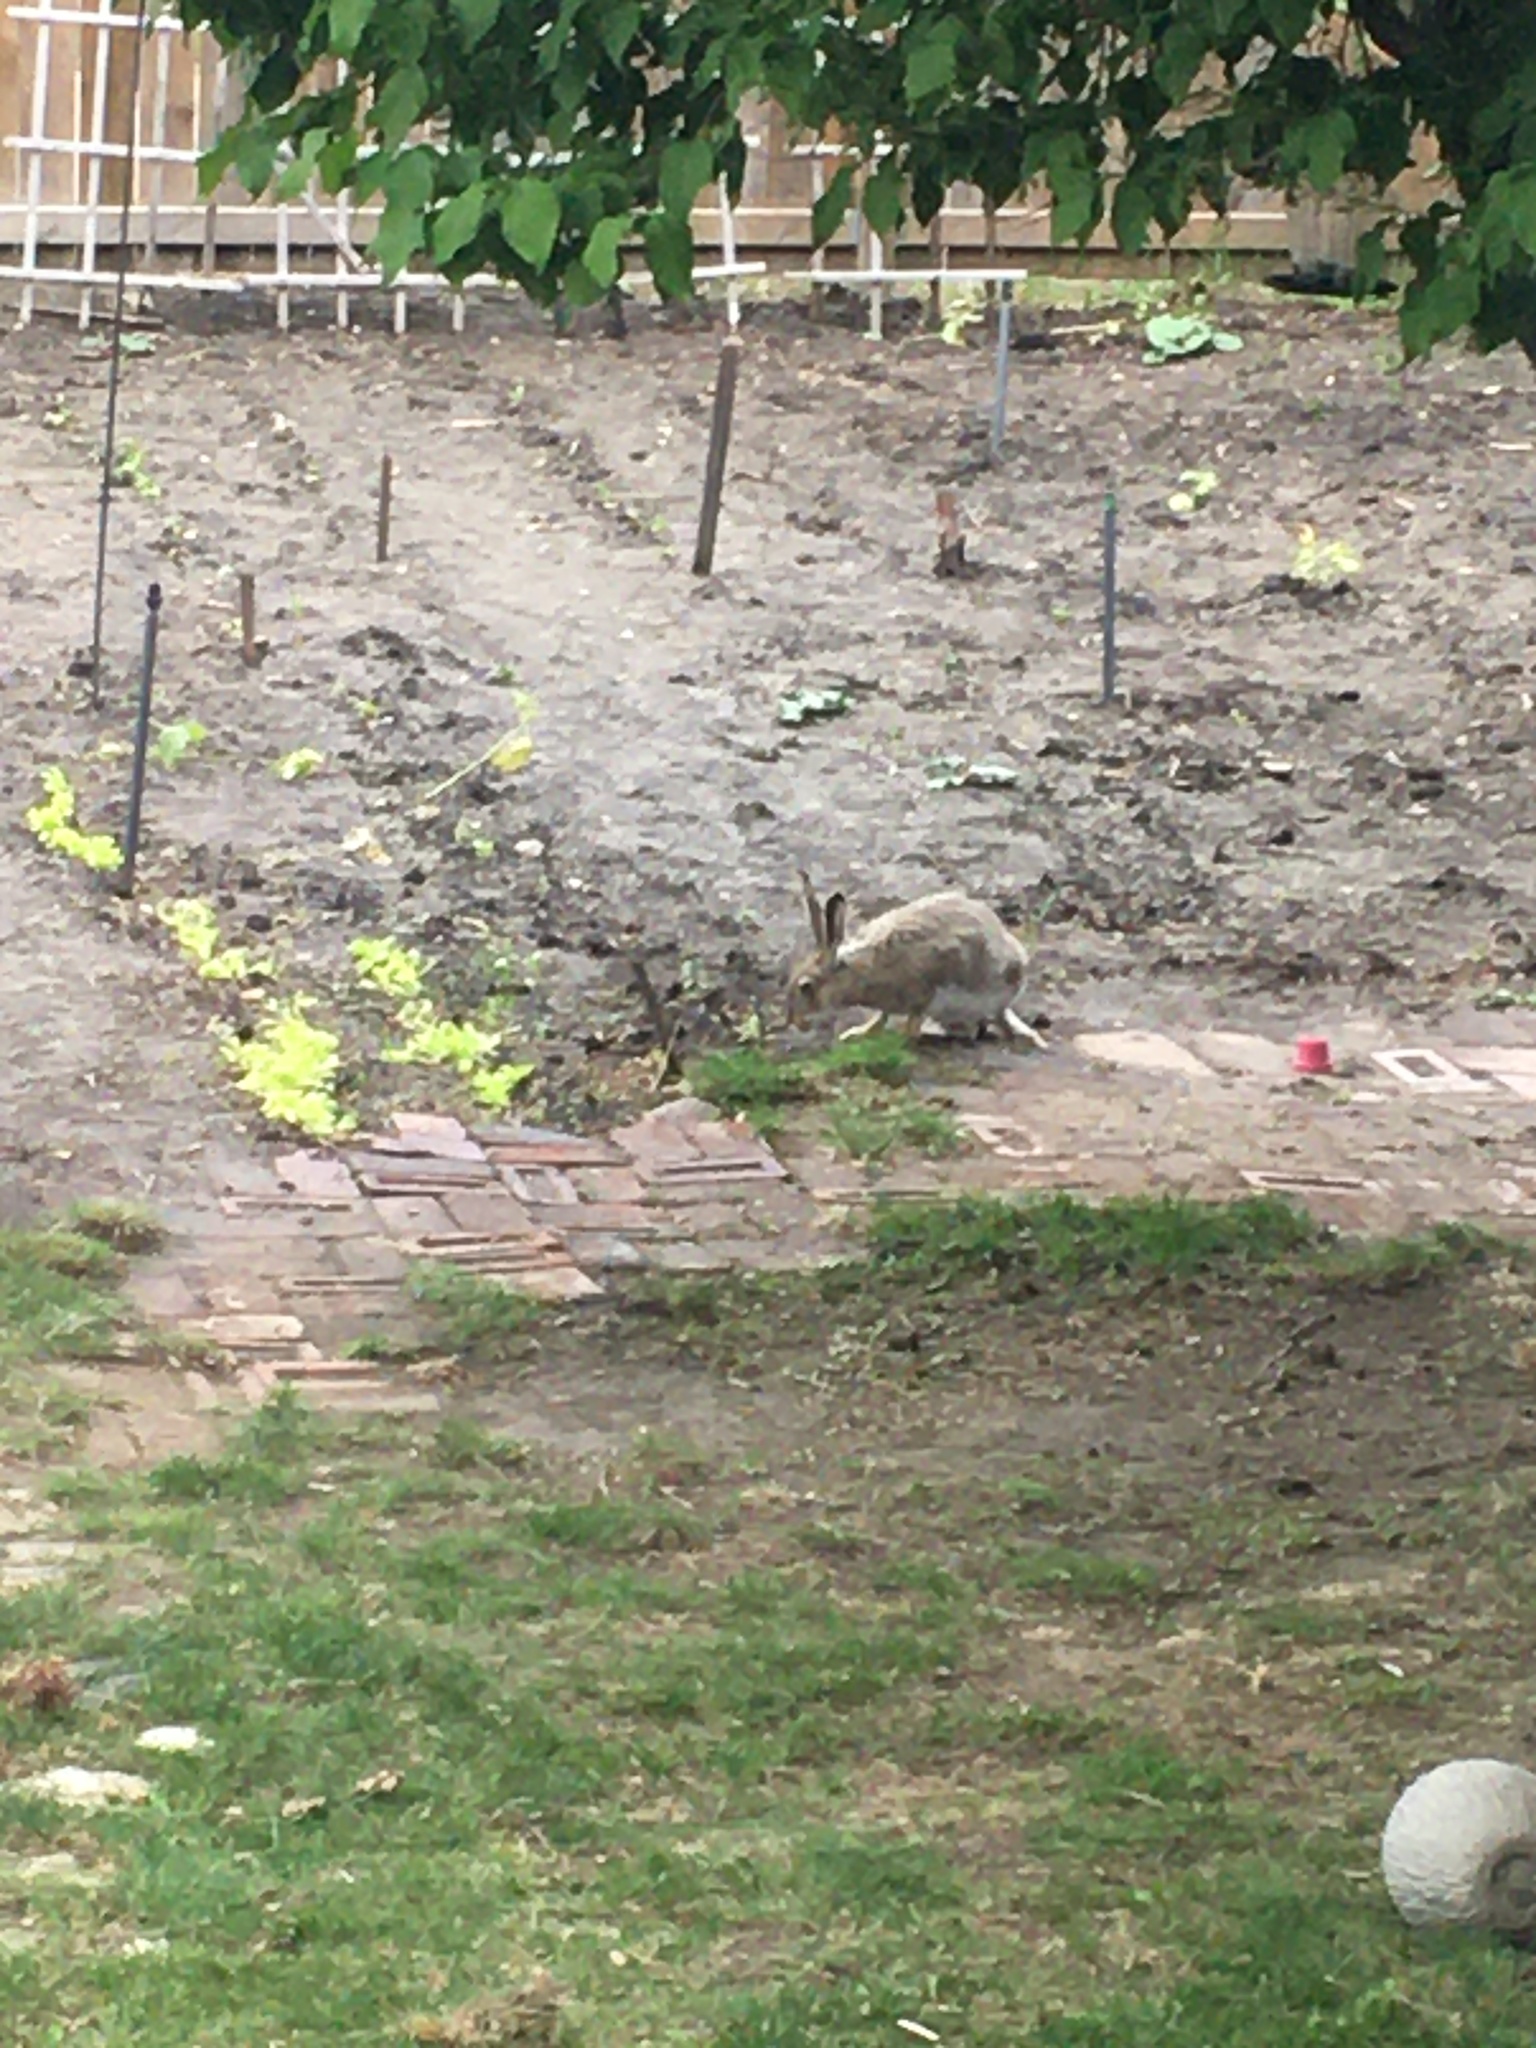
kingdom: Animalia
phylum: Chordata
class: Mammalia
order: Lagomorpha
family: Leporidae
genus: Lepus
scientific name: Lepus townsendii
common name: White-tailed jackrabbit
